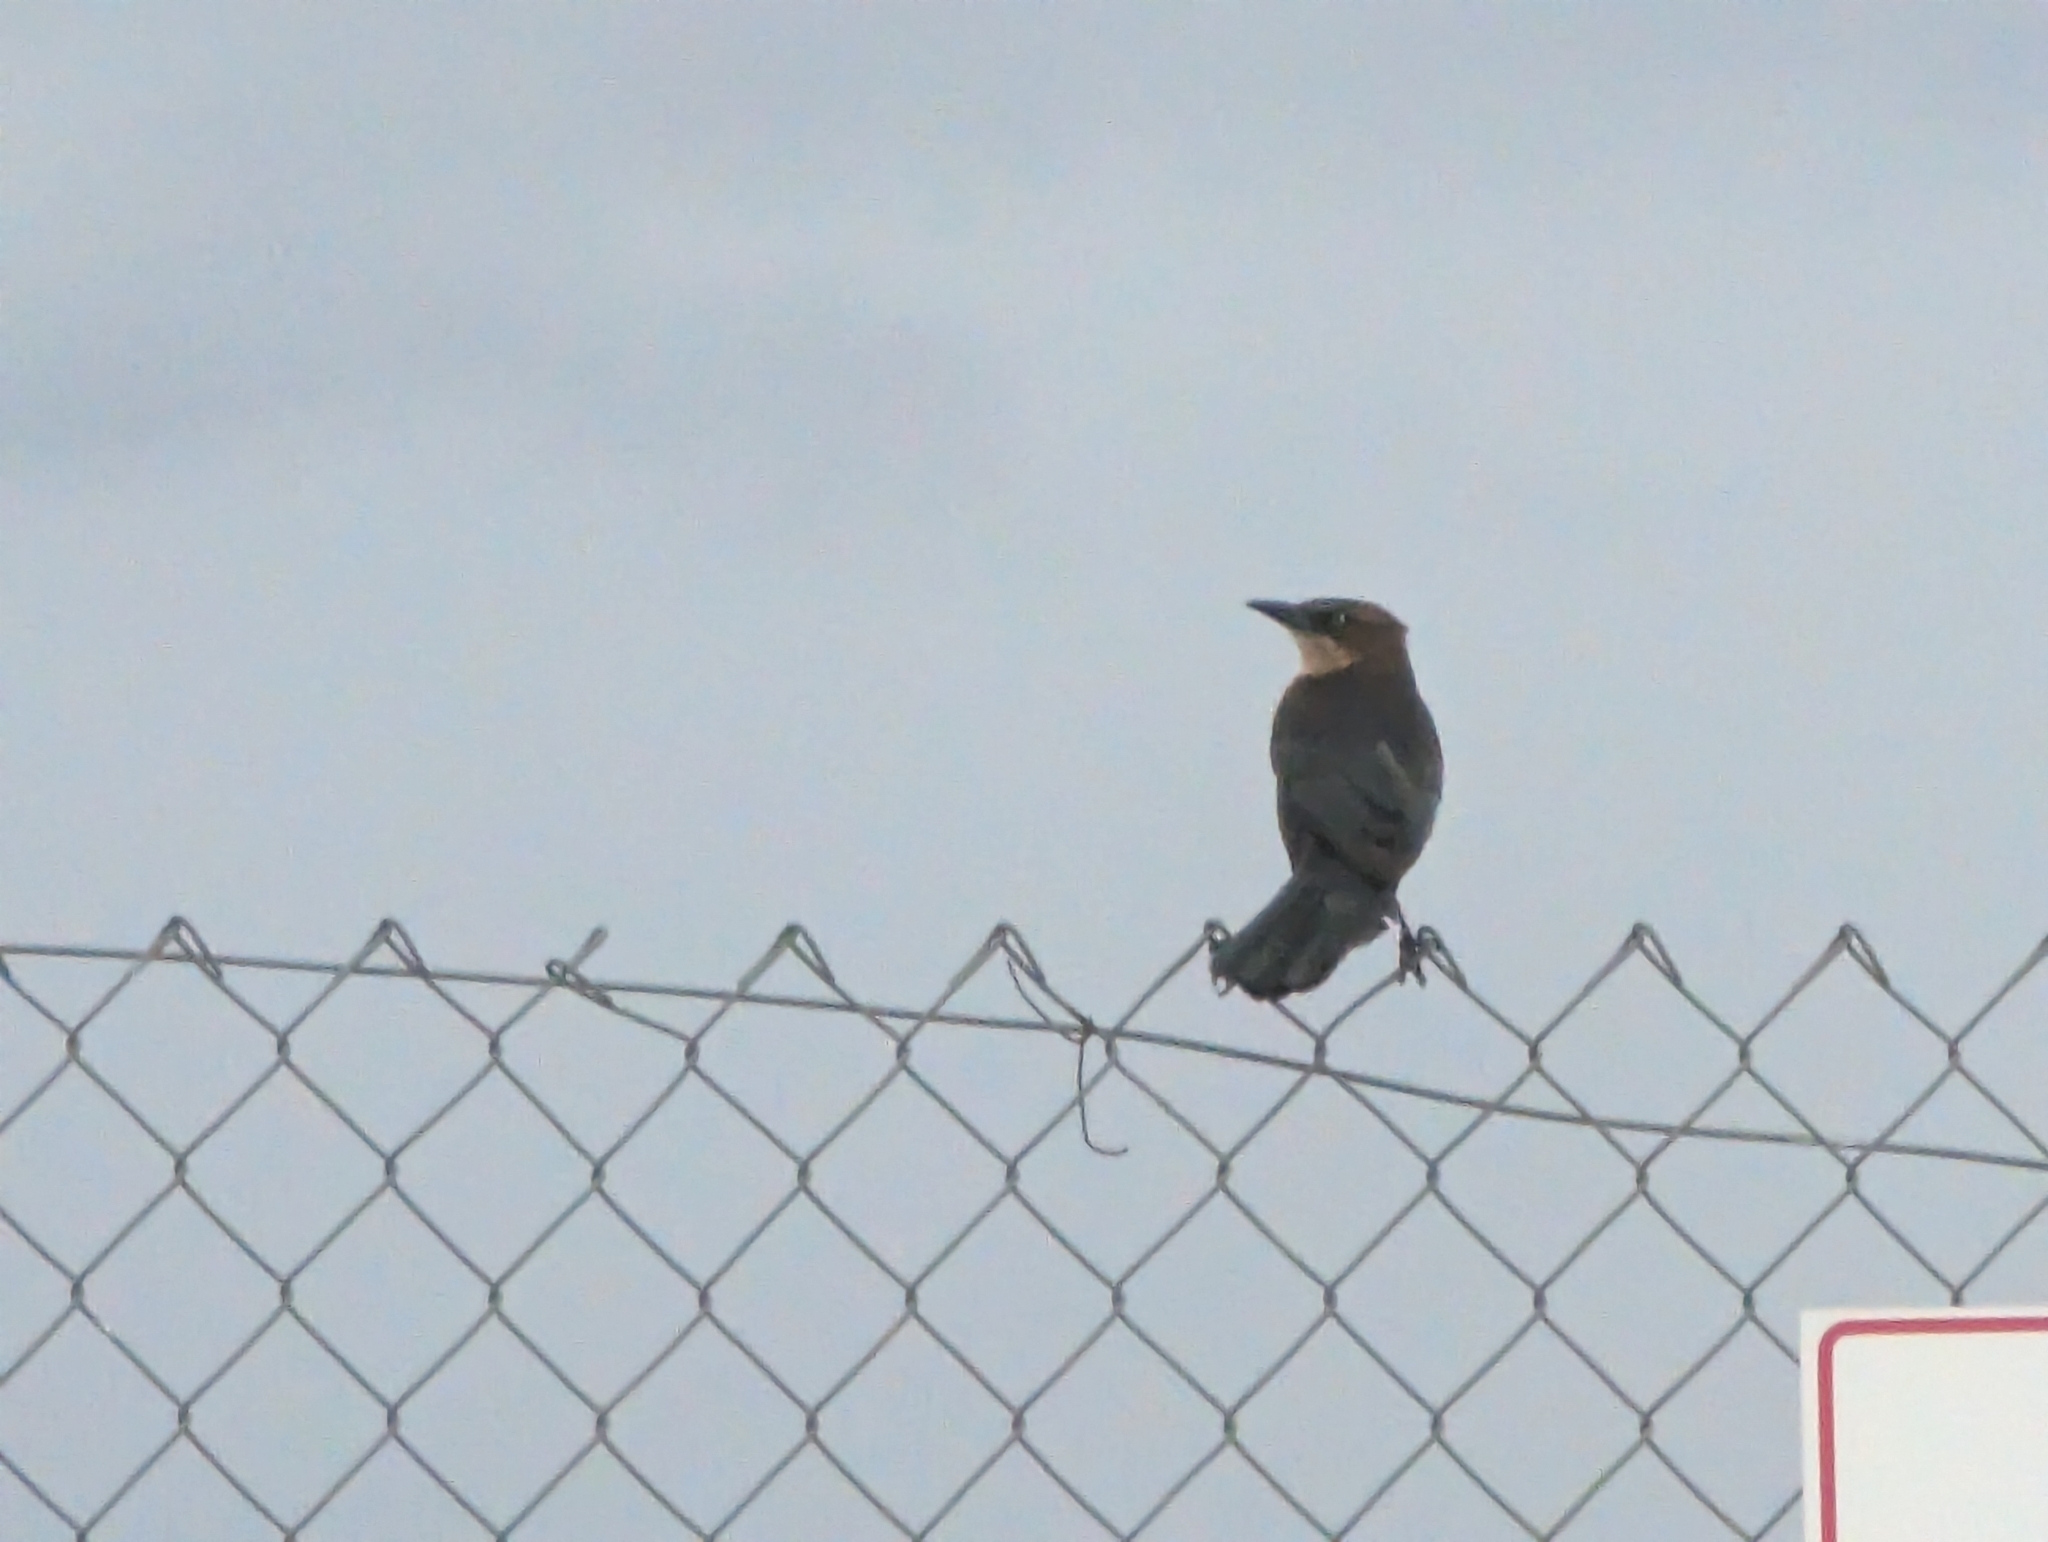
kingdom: Animalia
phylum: Chordata
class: Aves
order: Passeriformes
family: Icteridae
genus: Quiscalus
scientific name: Quiscalus mexicanus
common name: Great-tailed grackle
